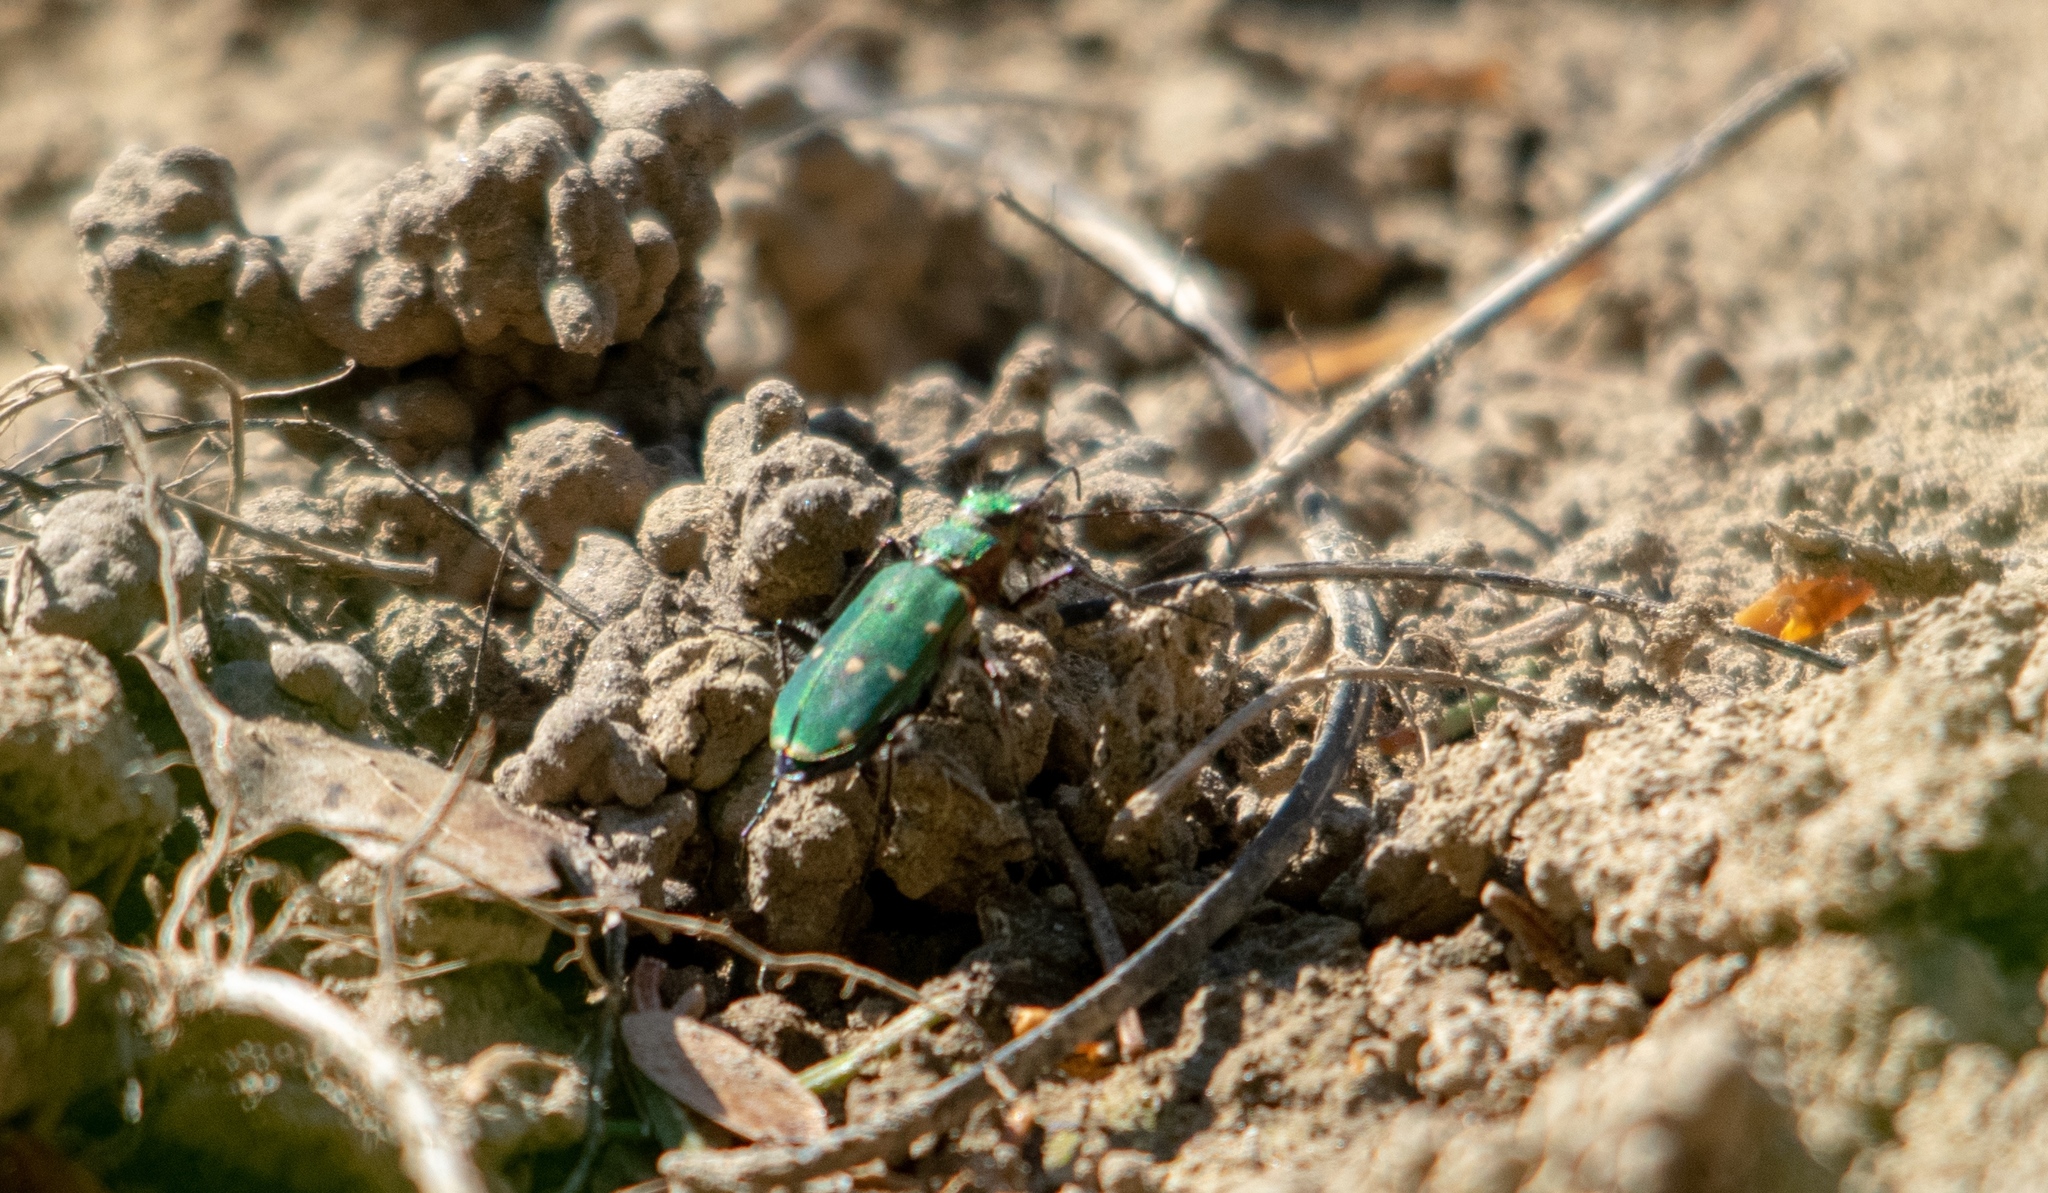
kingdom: Animalia
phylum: Arthropoda
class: Insecta
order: Coleoptera
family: Carabidae
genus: Cicindela
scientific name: Cicindela campestris
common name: Common tiger beetle
